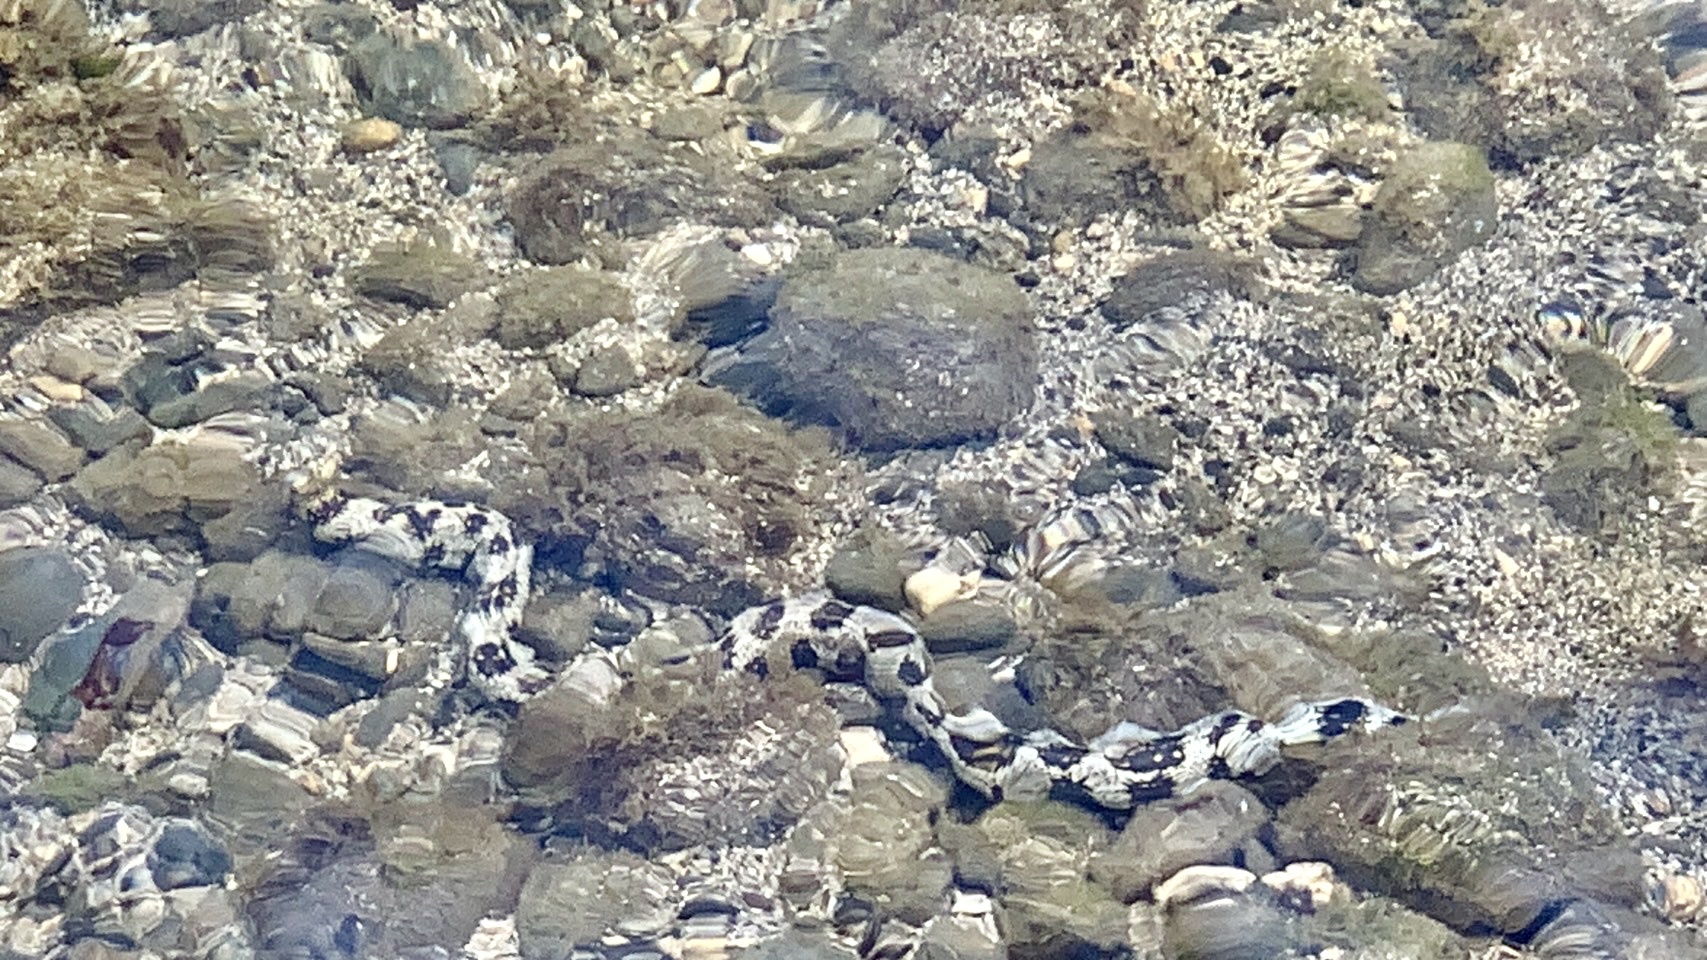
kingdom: Animalia
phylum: Chordata
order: Anguilliformes
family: Muraenidae
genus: Echidna
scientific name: Echidna nebulosa
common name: Snowflake moray
